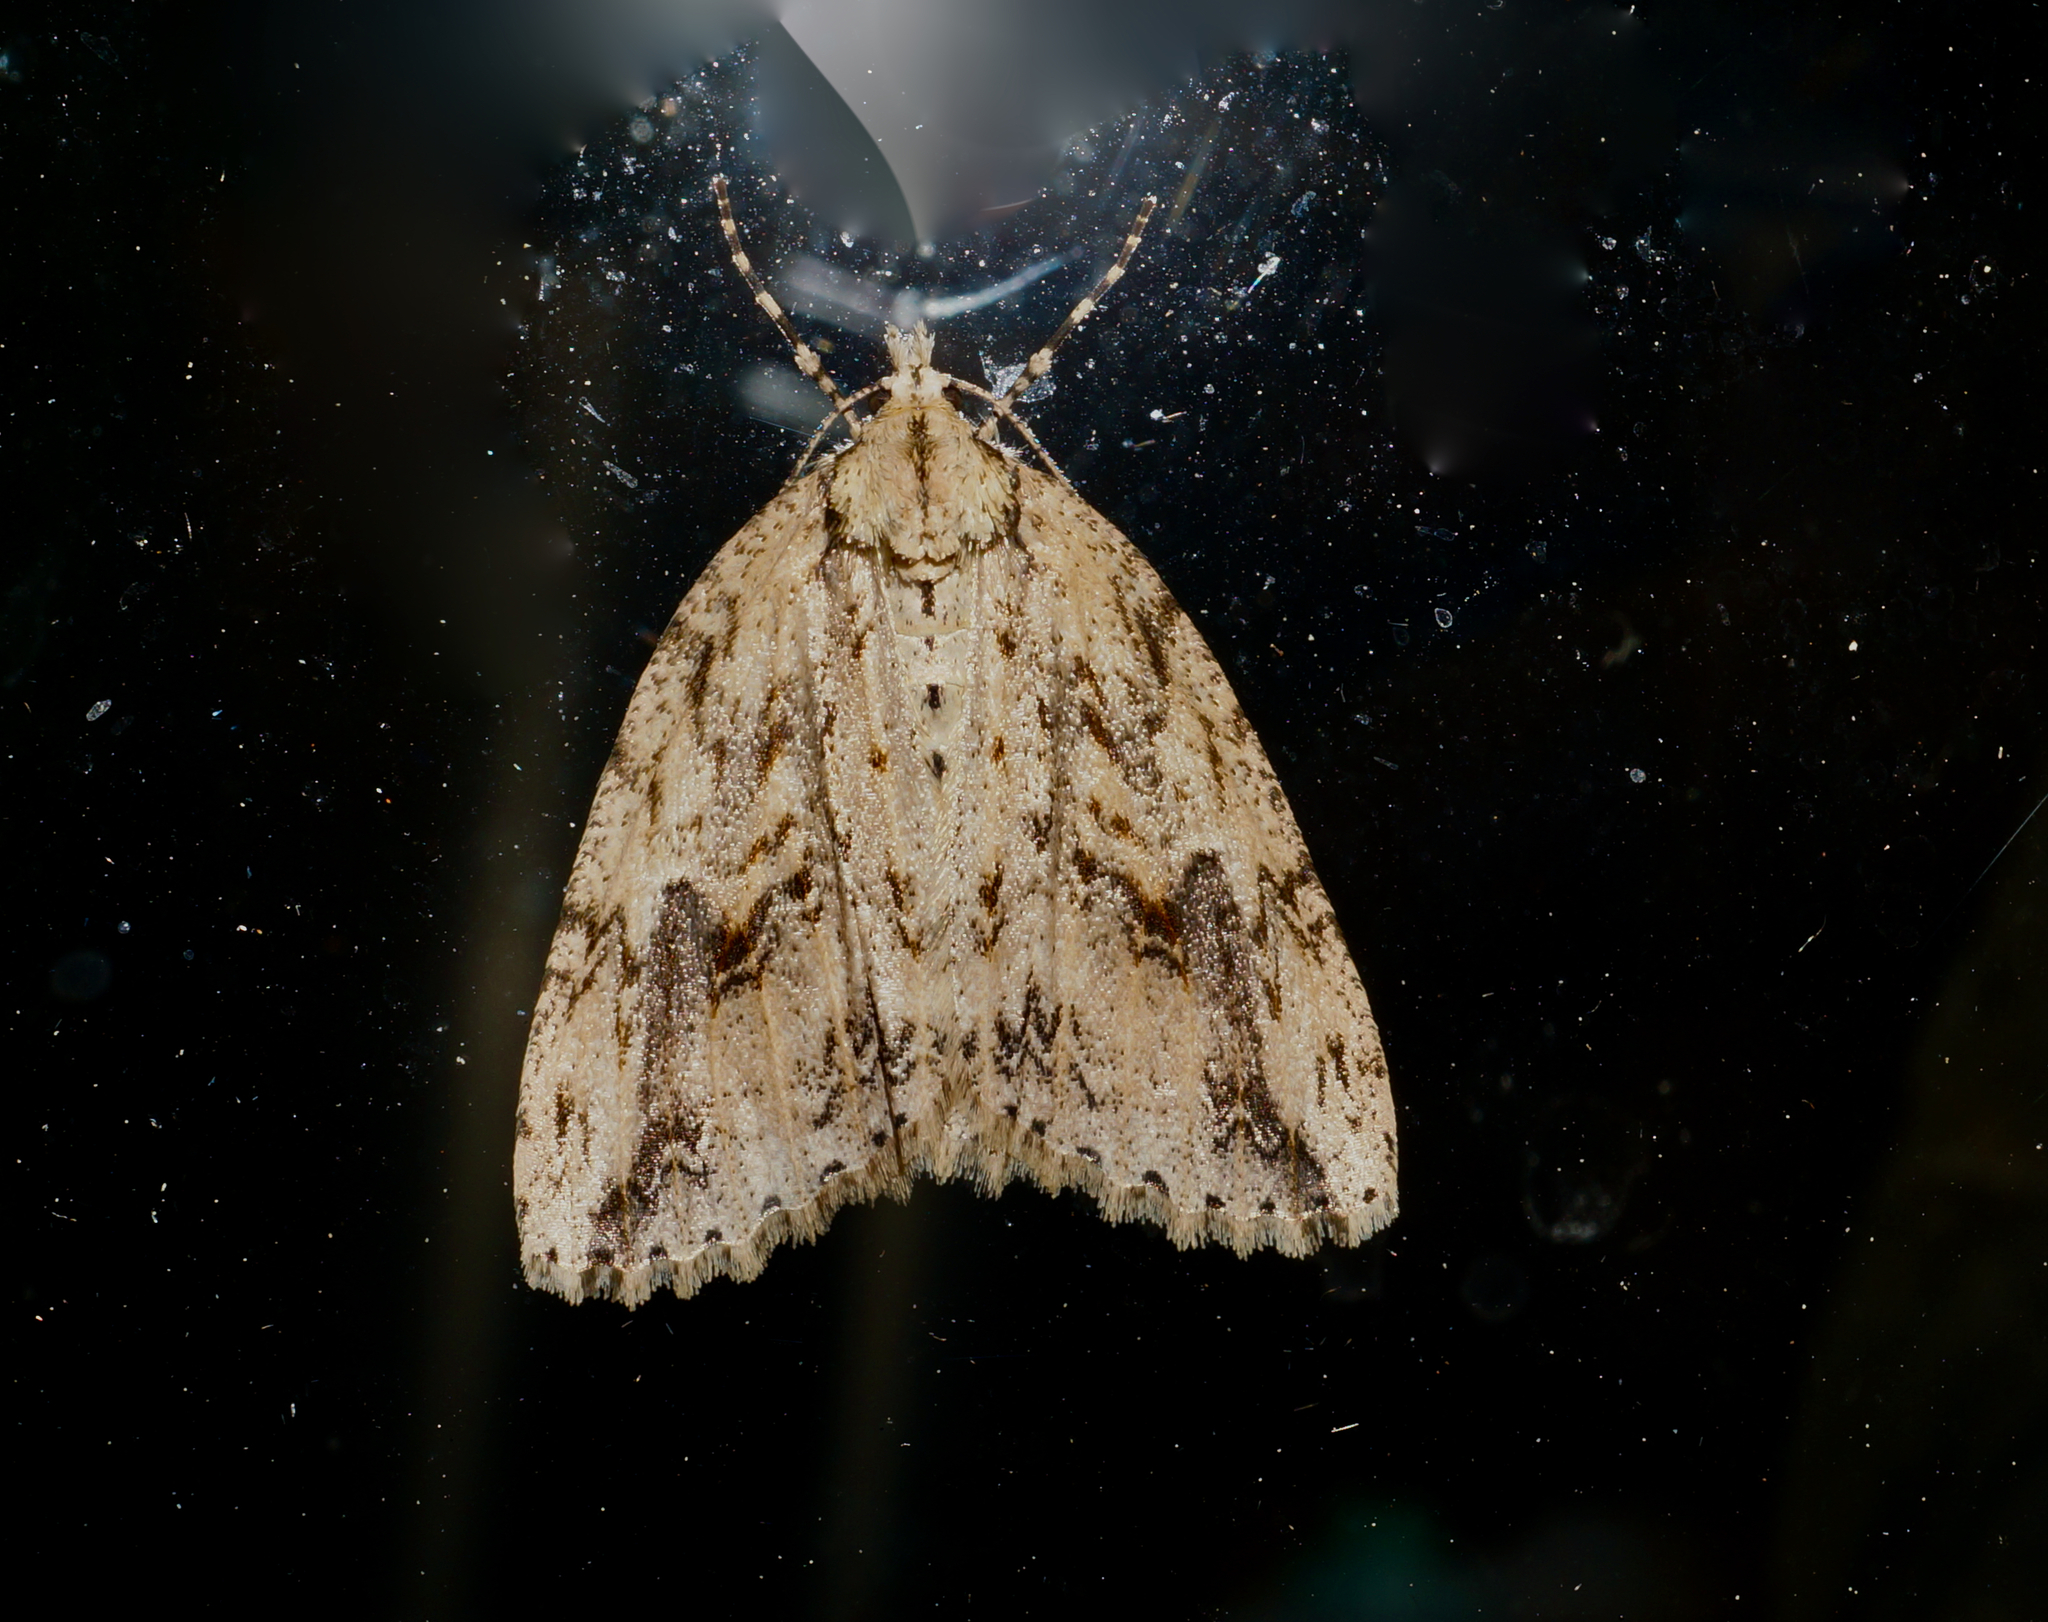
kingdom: Animalia
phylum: Arthropoda
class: Insecta
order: Lepidoptera
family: Geometridae
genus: Pseudocoremia
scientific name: Pseudocoremia rudisata
